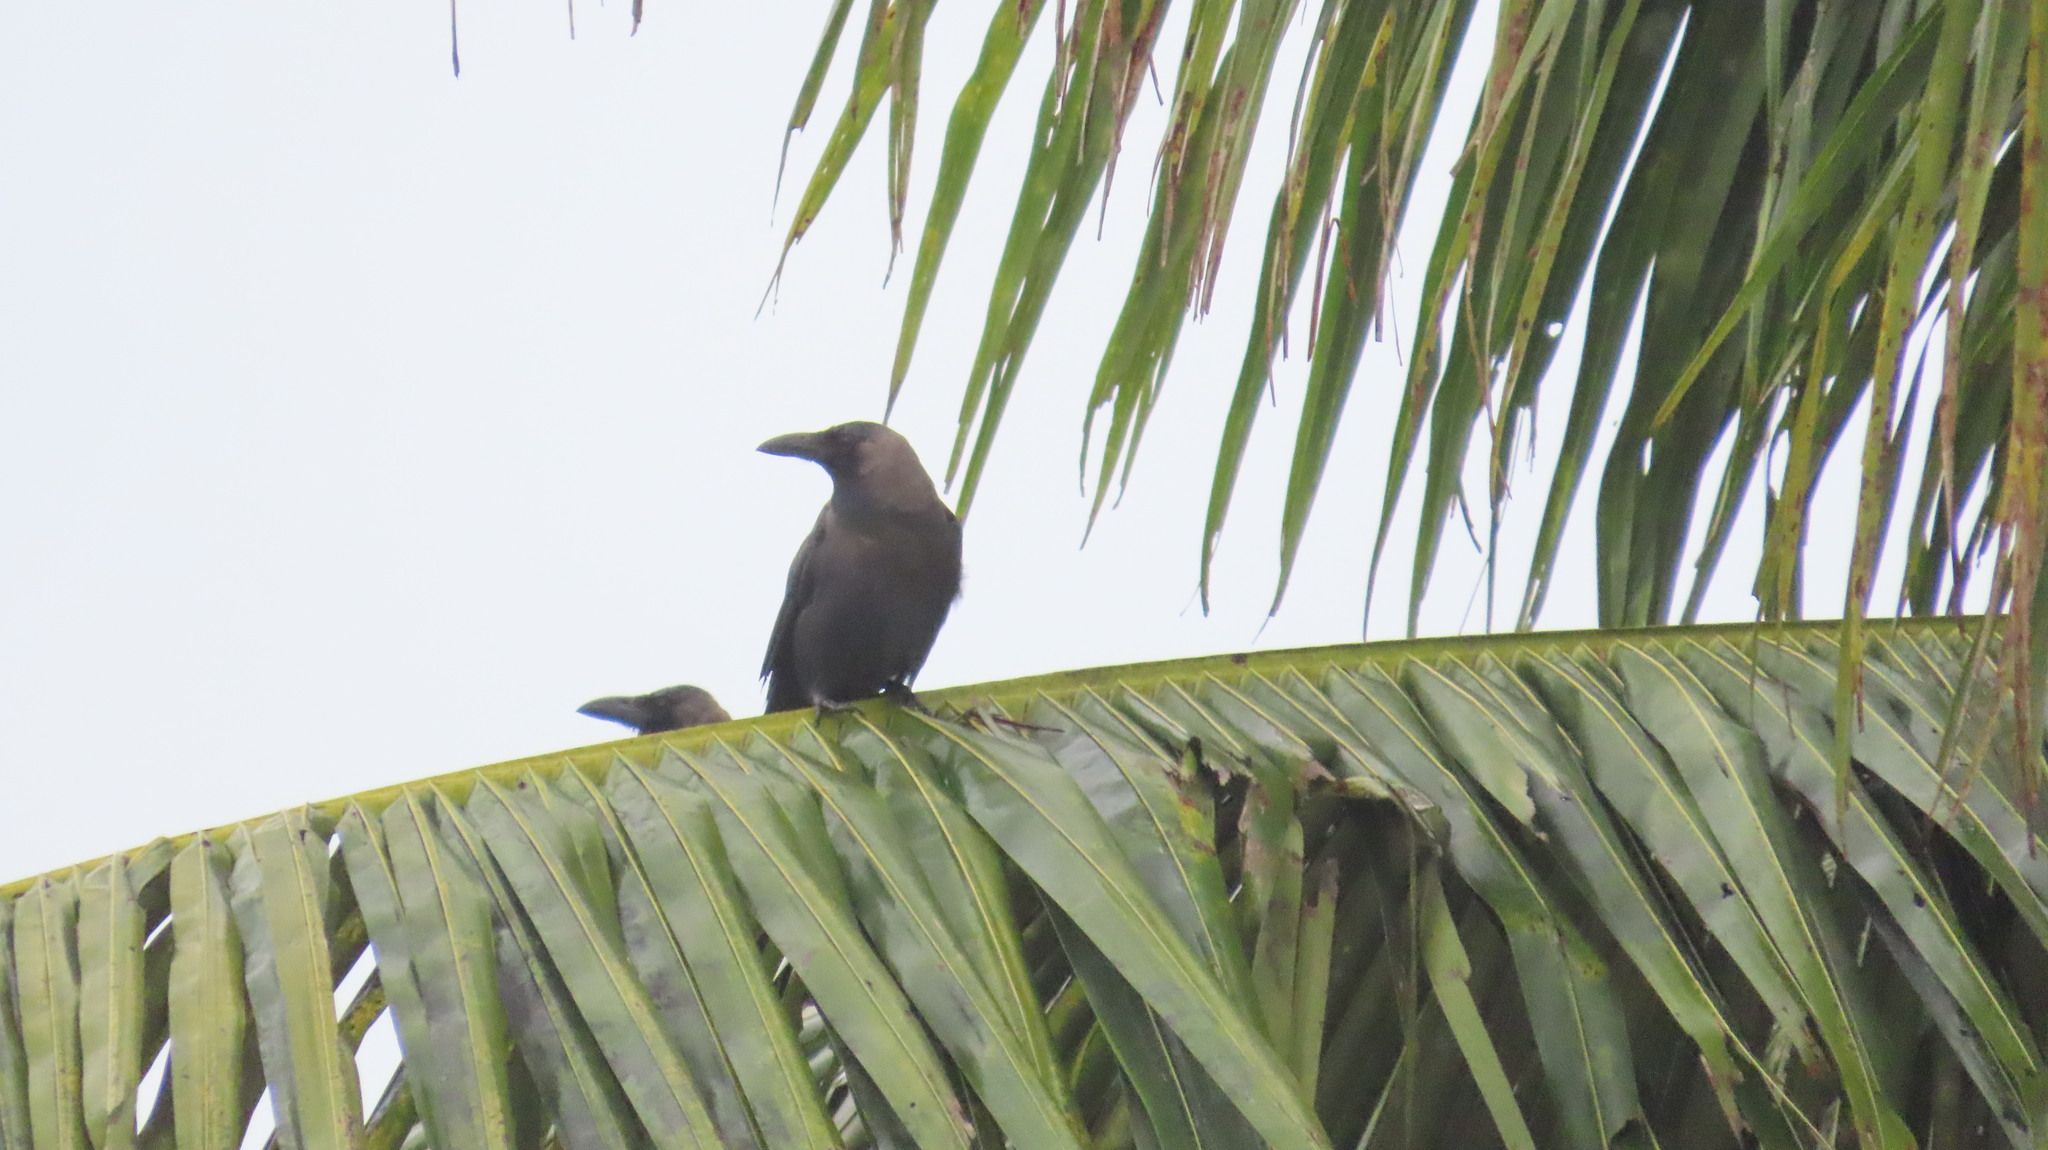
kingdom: Animalia
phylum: Chordata
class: Aves
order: Passeriformes
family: Corvidae
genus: Corvus
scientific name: Corvus splendens
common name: House crow
